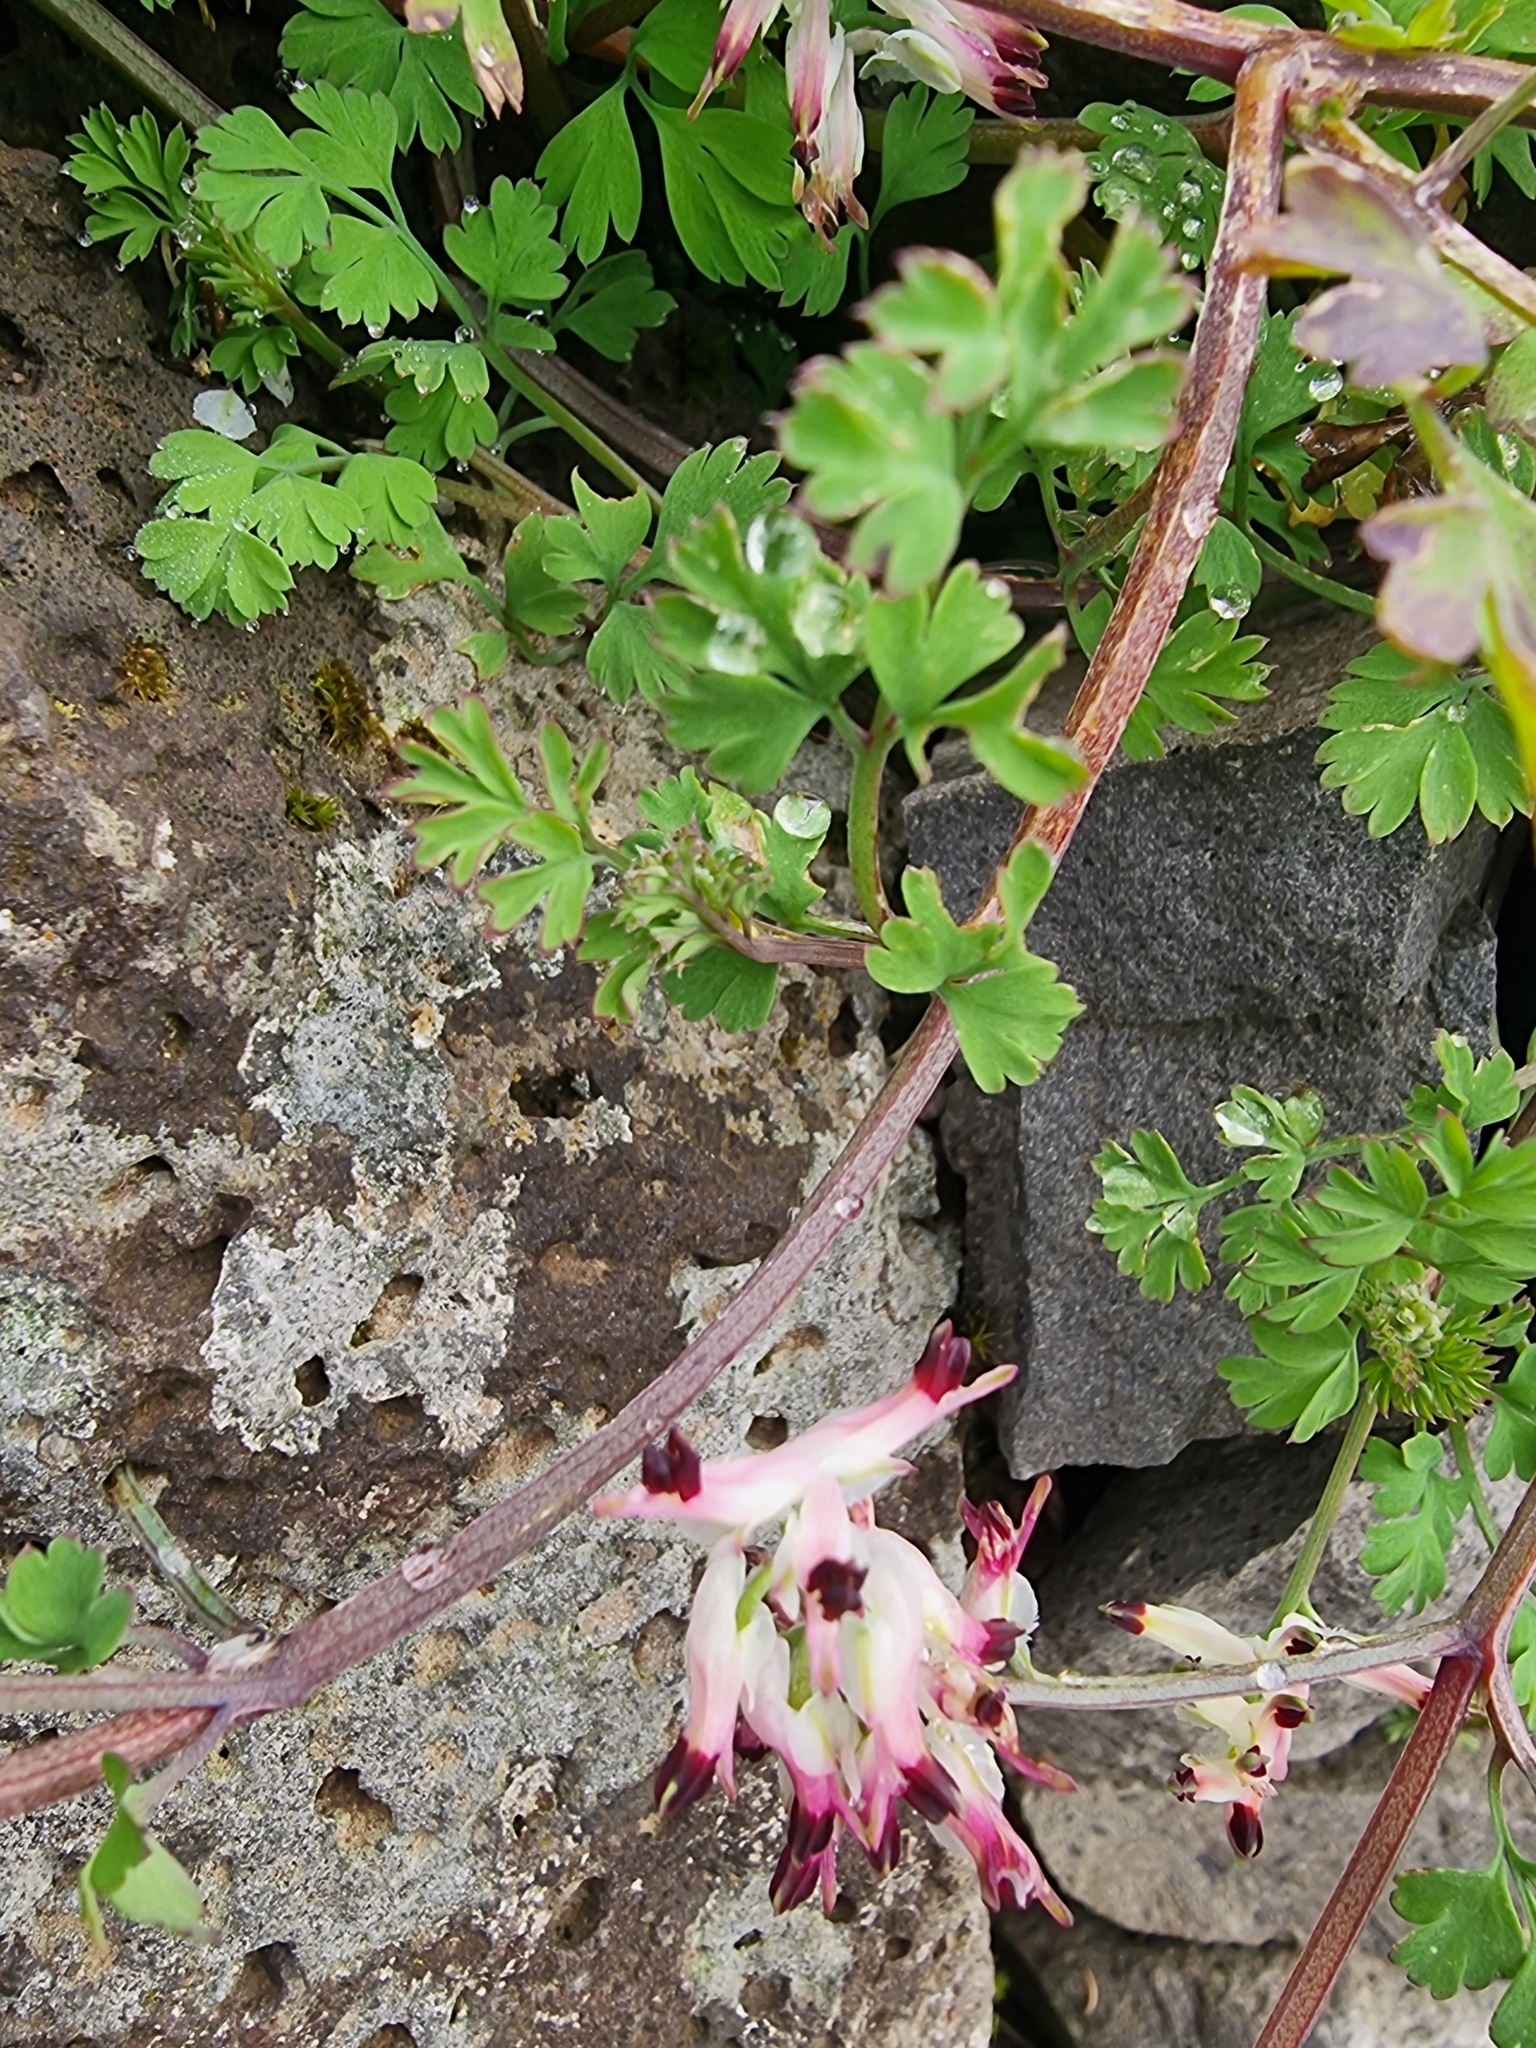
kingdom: Plantae
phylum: Tracheophyta
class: Magnoliopsida
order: Ranunculales
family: Papaveraceae
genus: Fumaria
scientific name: Fumaria capreolata
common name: White ramping-fumitory
